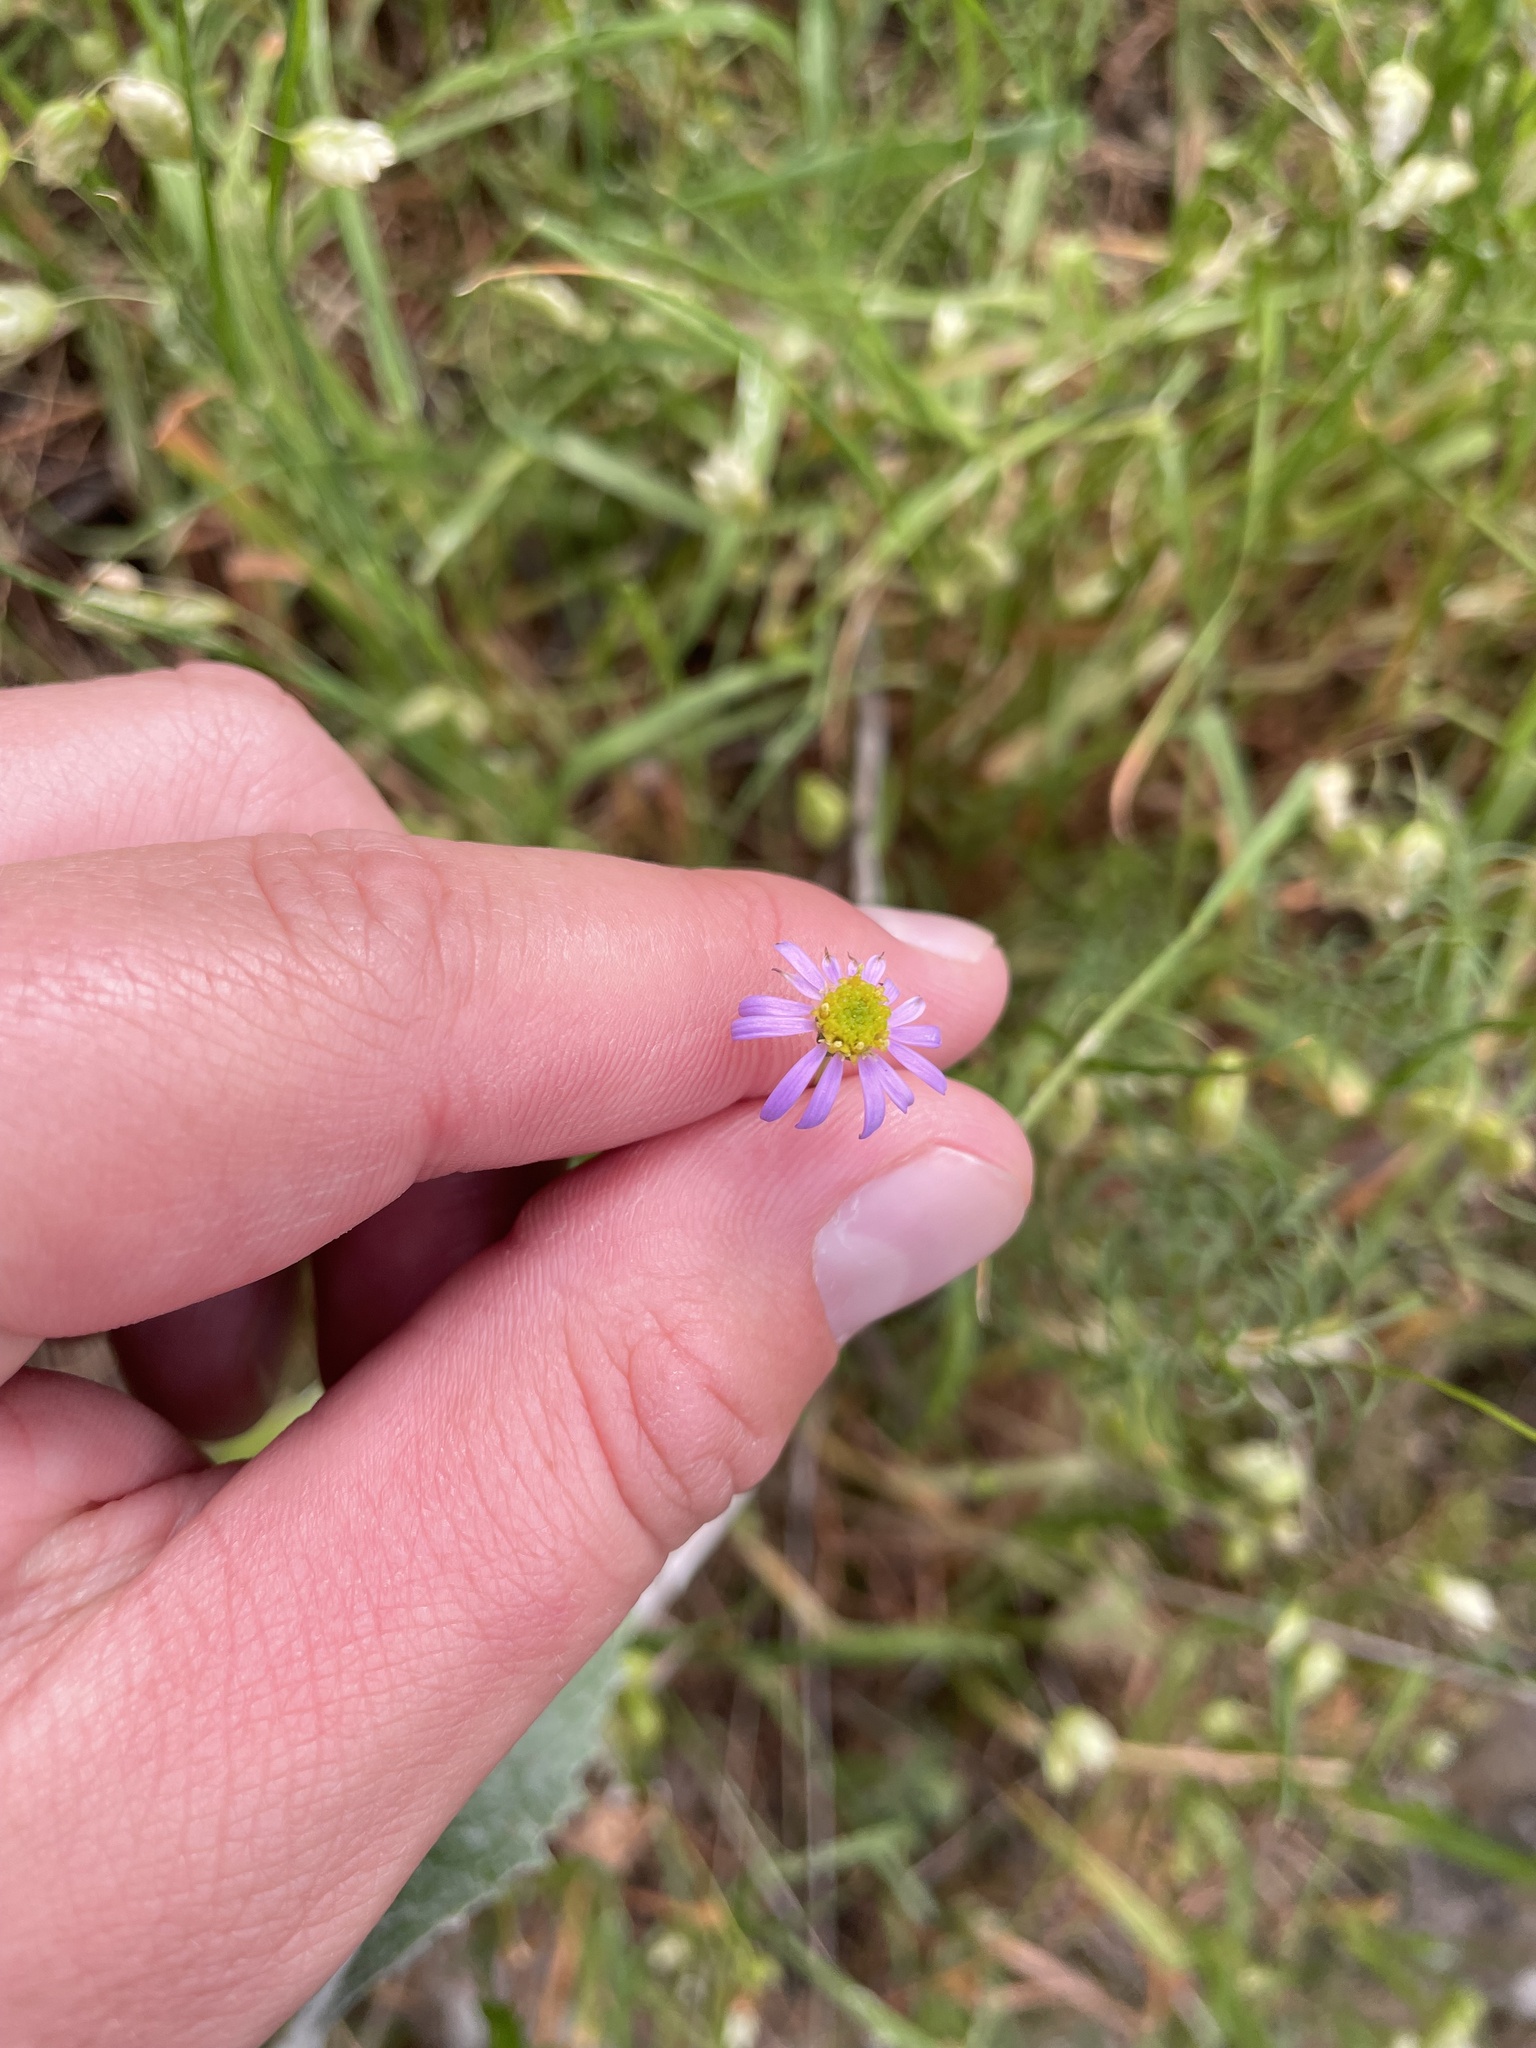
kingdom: Plantae
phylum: Tracheophyta
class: Magnoliopsida
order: Asterales
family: Asteraceae
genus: Brachyscome
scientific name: Brachyscome multifida
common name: Cut-leaf daisy
